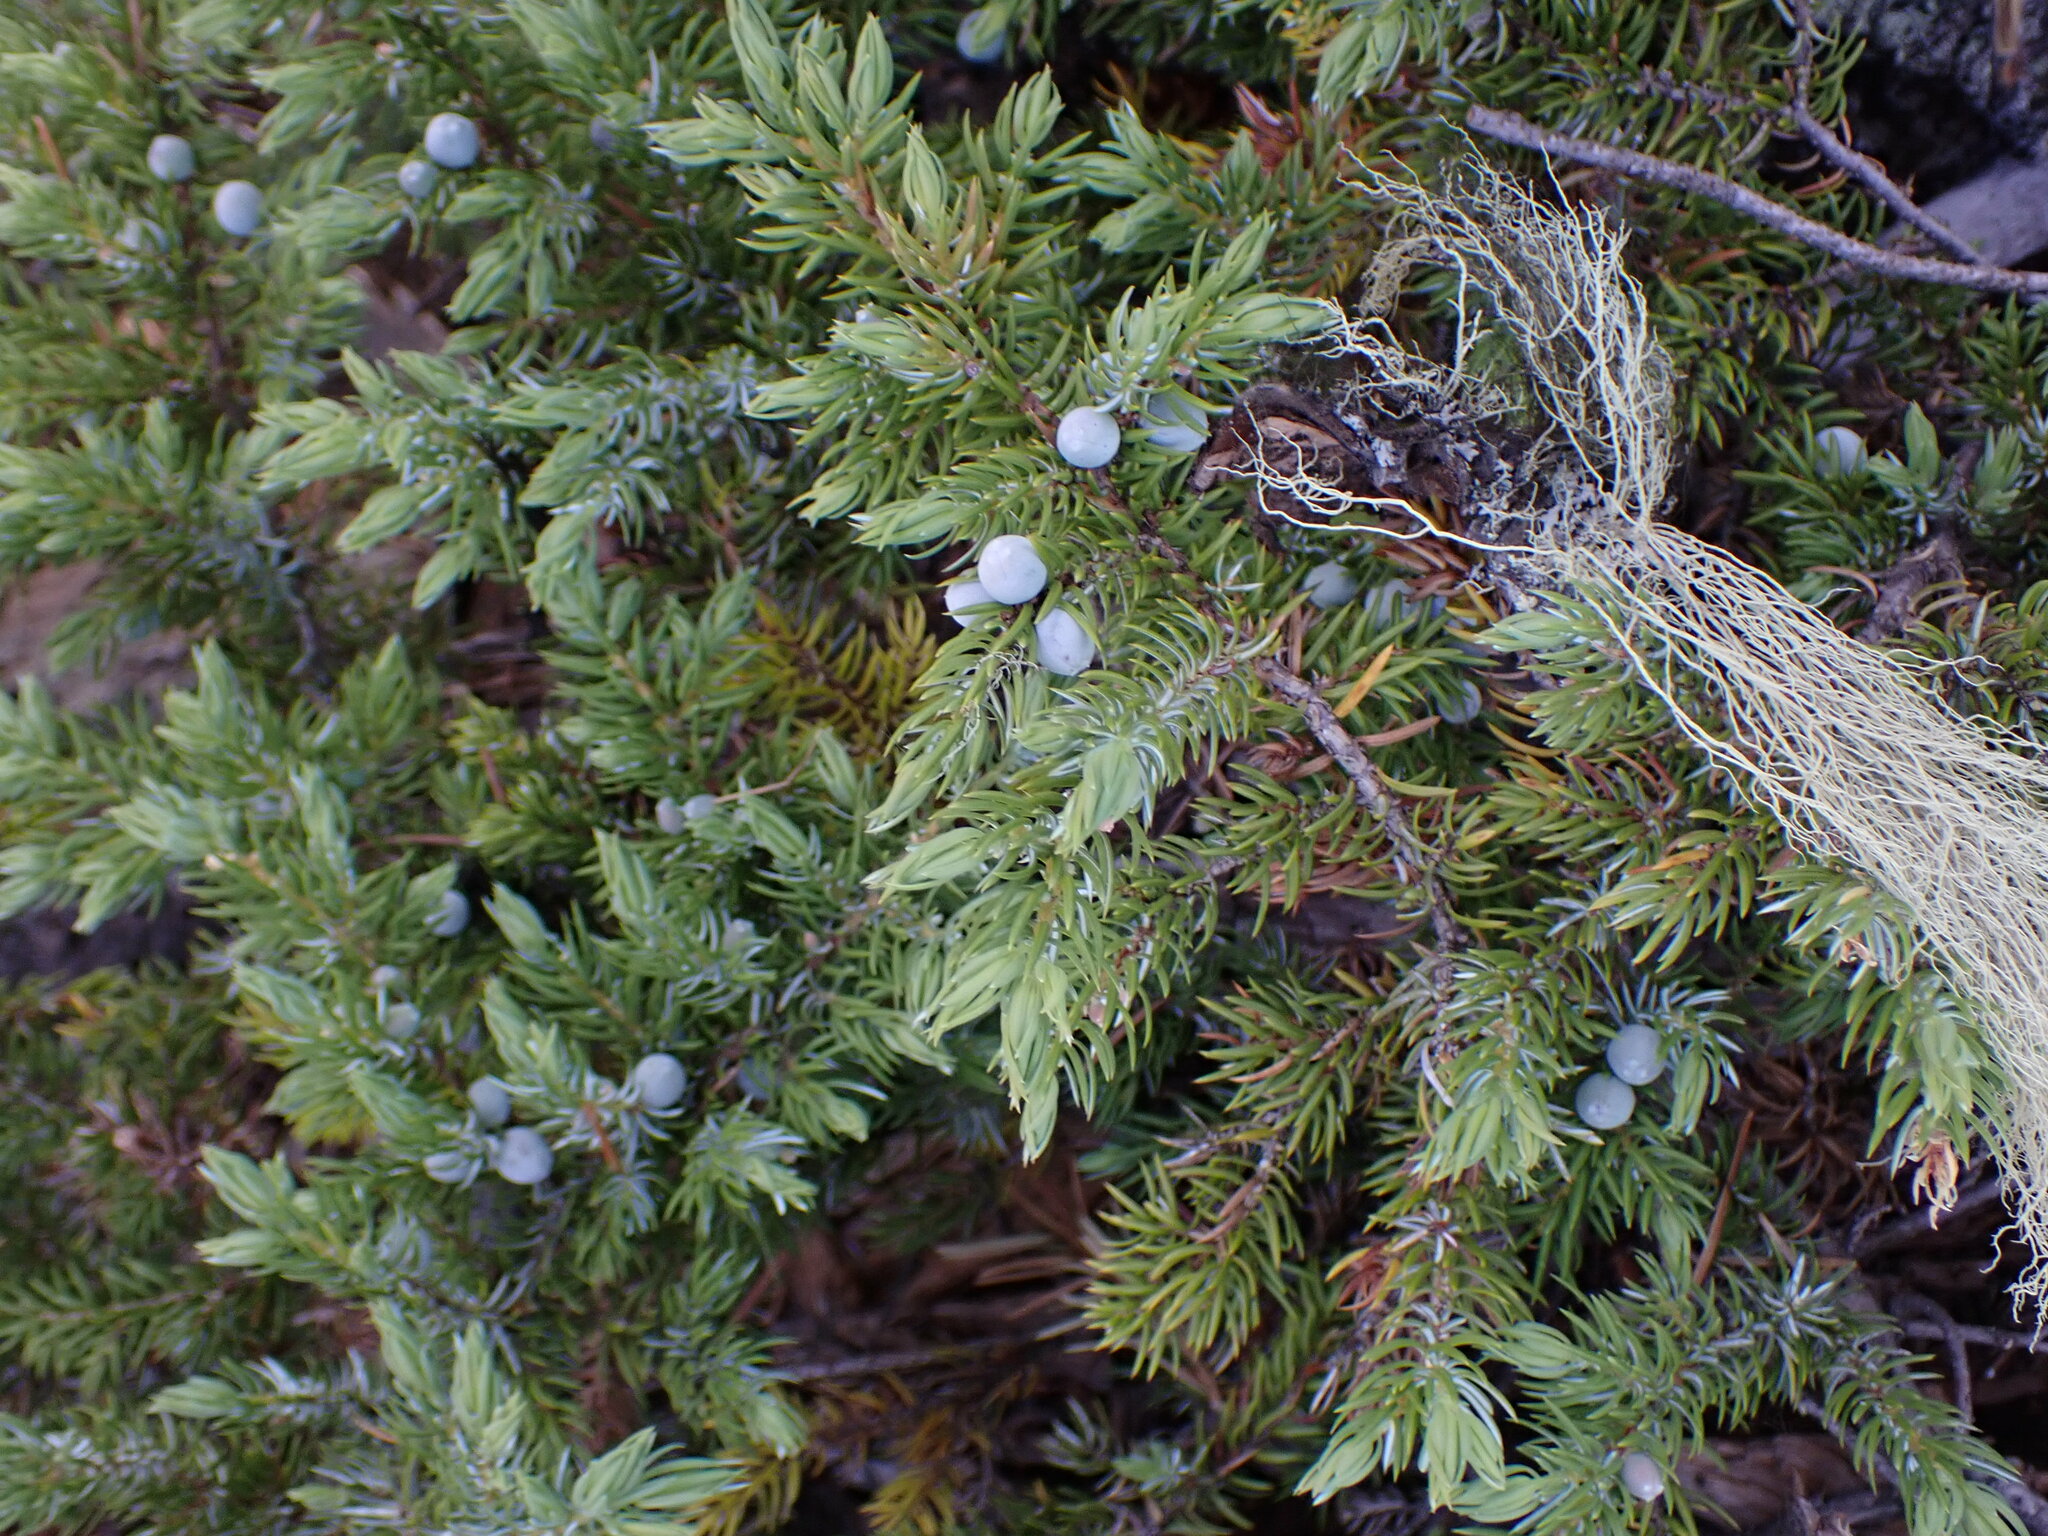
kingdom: Plantae
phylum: Tracheophyta
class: Pinopsida
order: Pinales
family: Cupressaceae
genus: Juniperus
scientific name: Juniperus communis
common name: Common juniper
